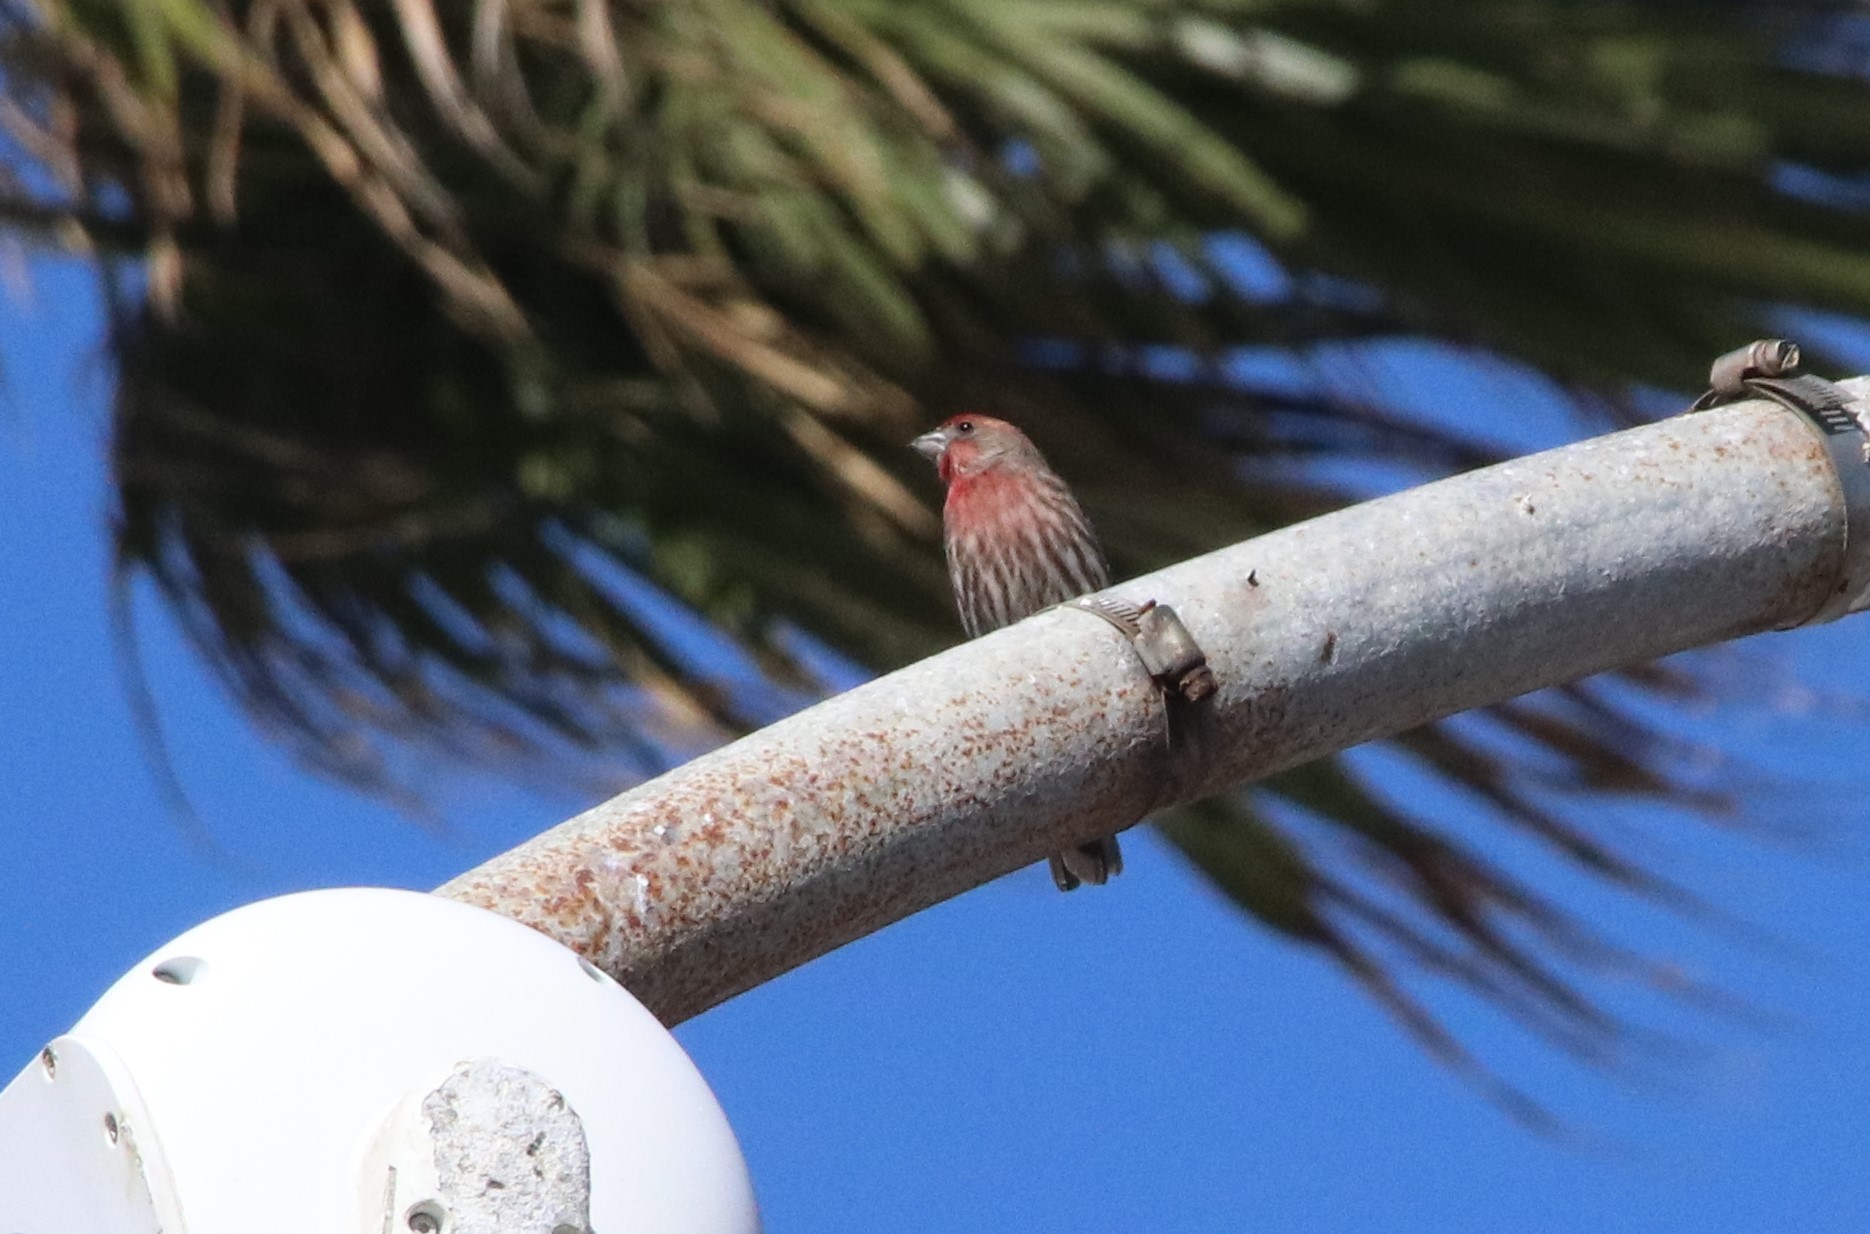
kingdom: Animalia
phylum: Chordata
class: Aves
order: Passeriformes
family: Fringillidae
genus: Haemorhous
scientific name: Haemorhous mexicanus
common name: House finch
